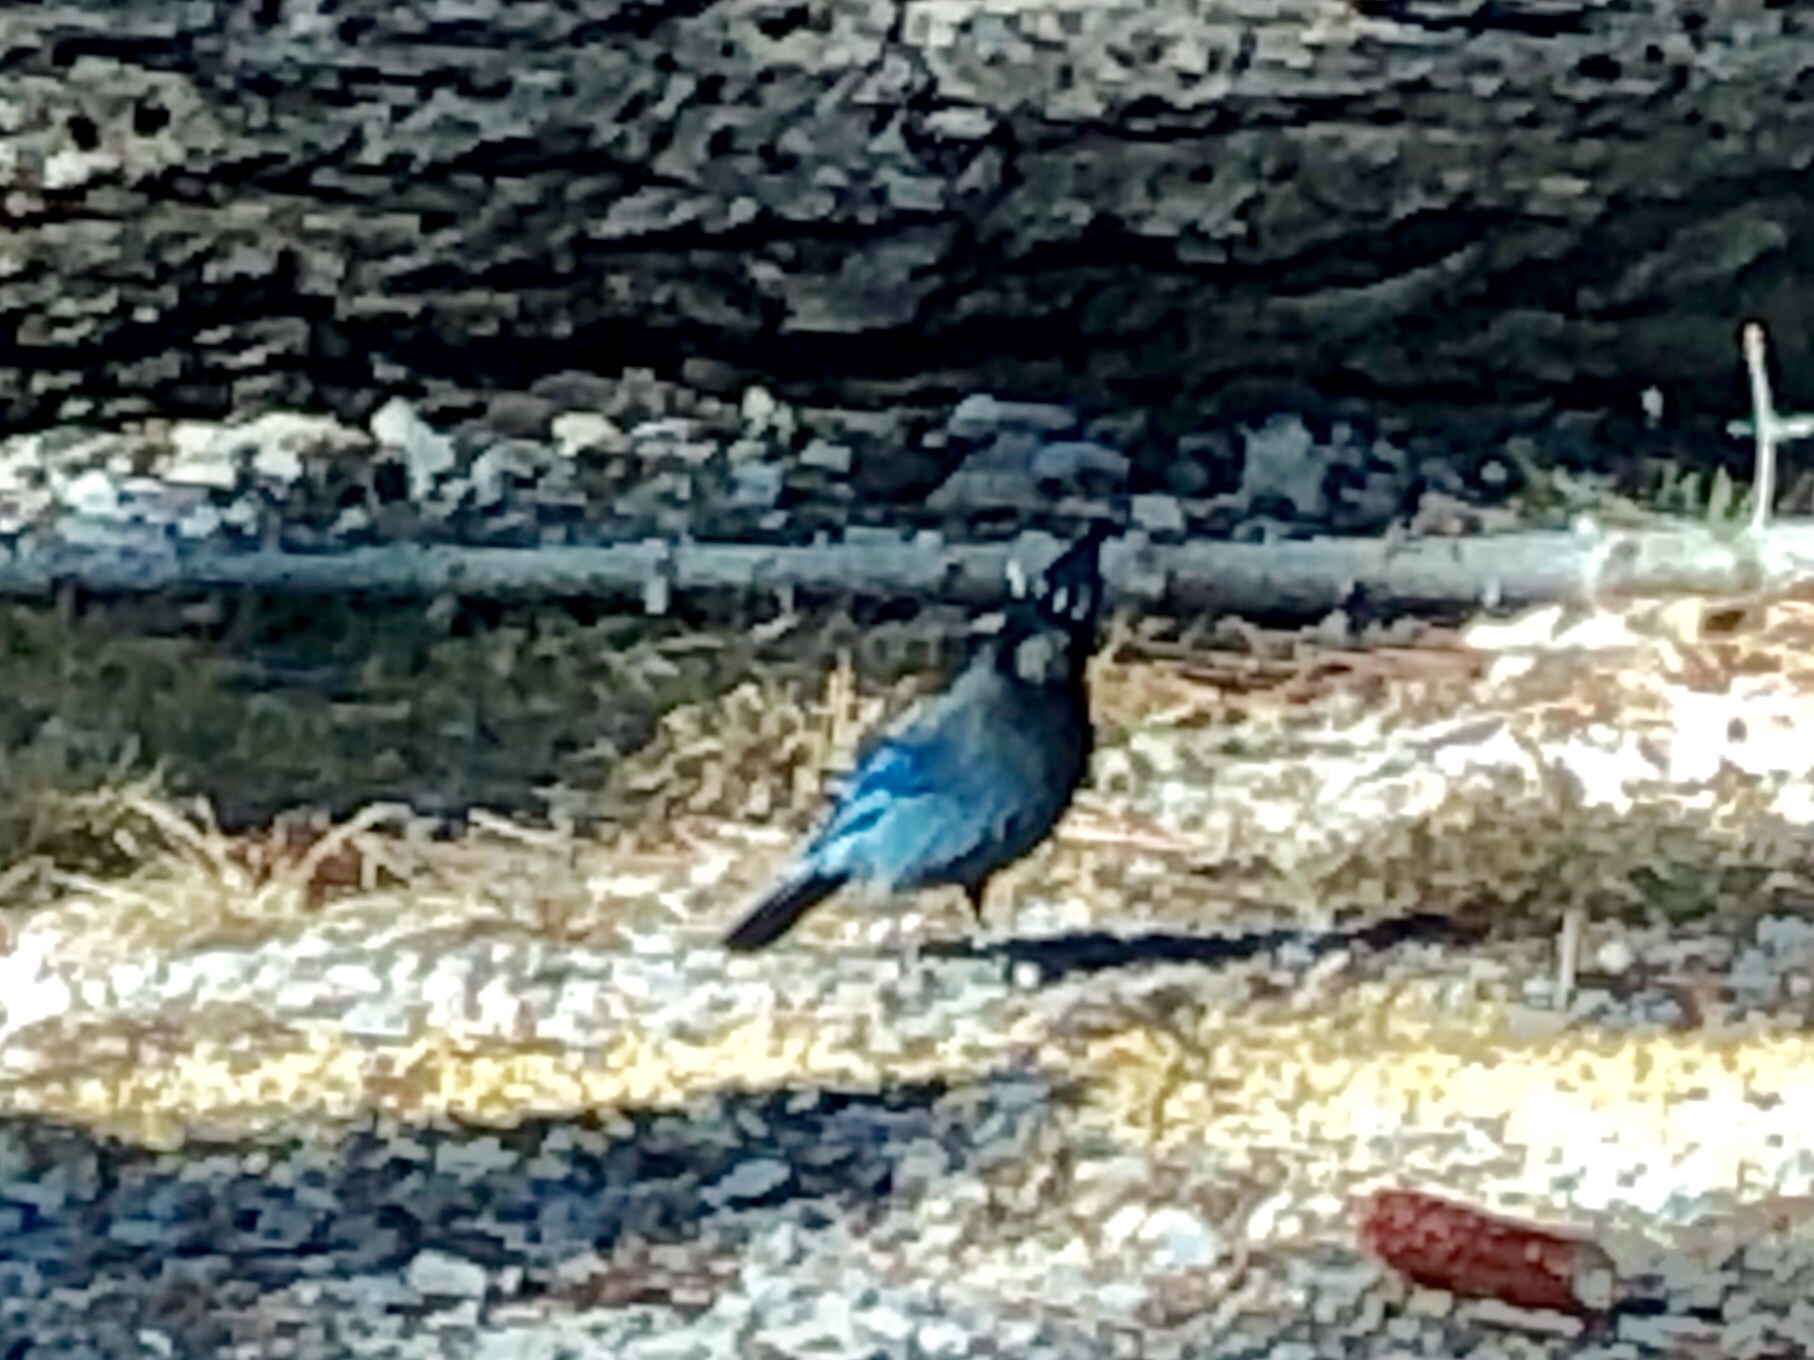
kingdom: Animalia
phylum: Chordata
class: Aves
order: Passeriformes
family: Corvidae
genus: Cyanocitta
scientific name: Cyanocitta stelleri
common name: Steller's jay
